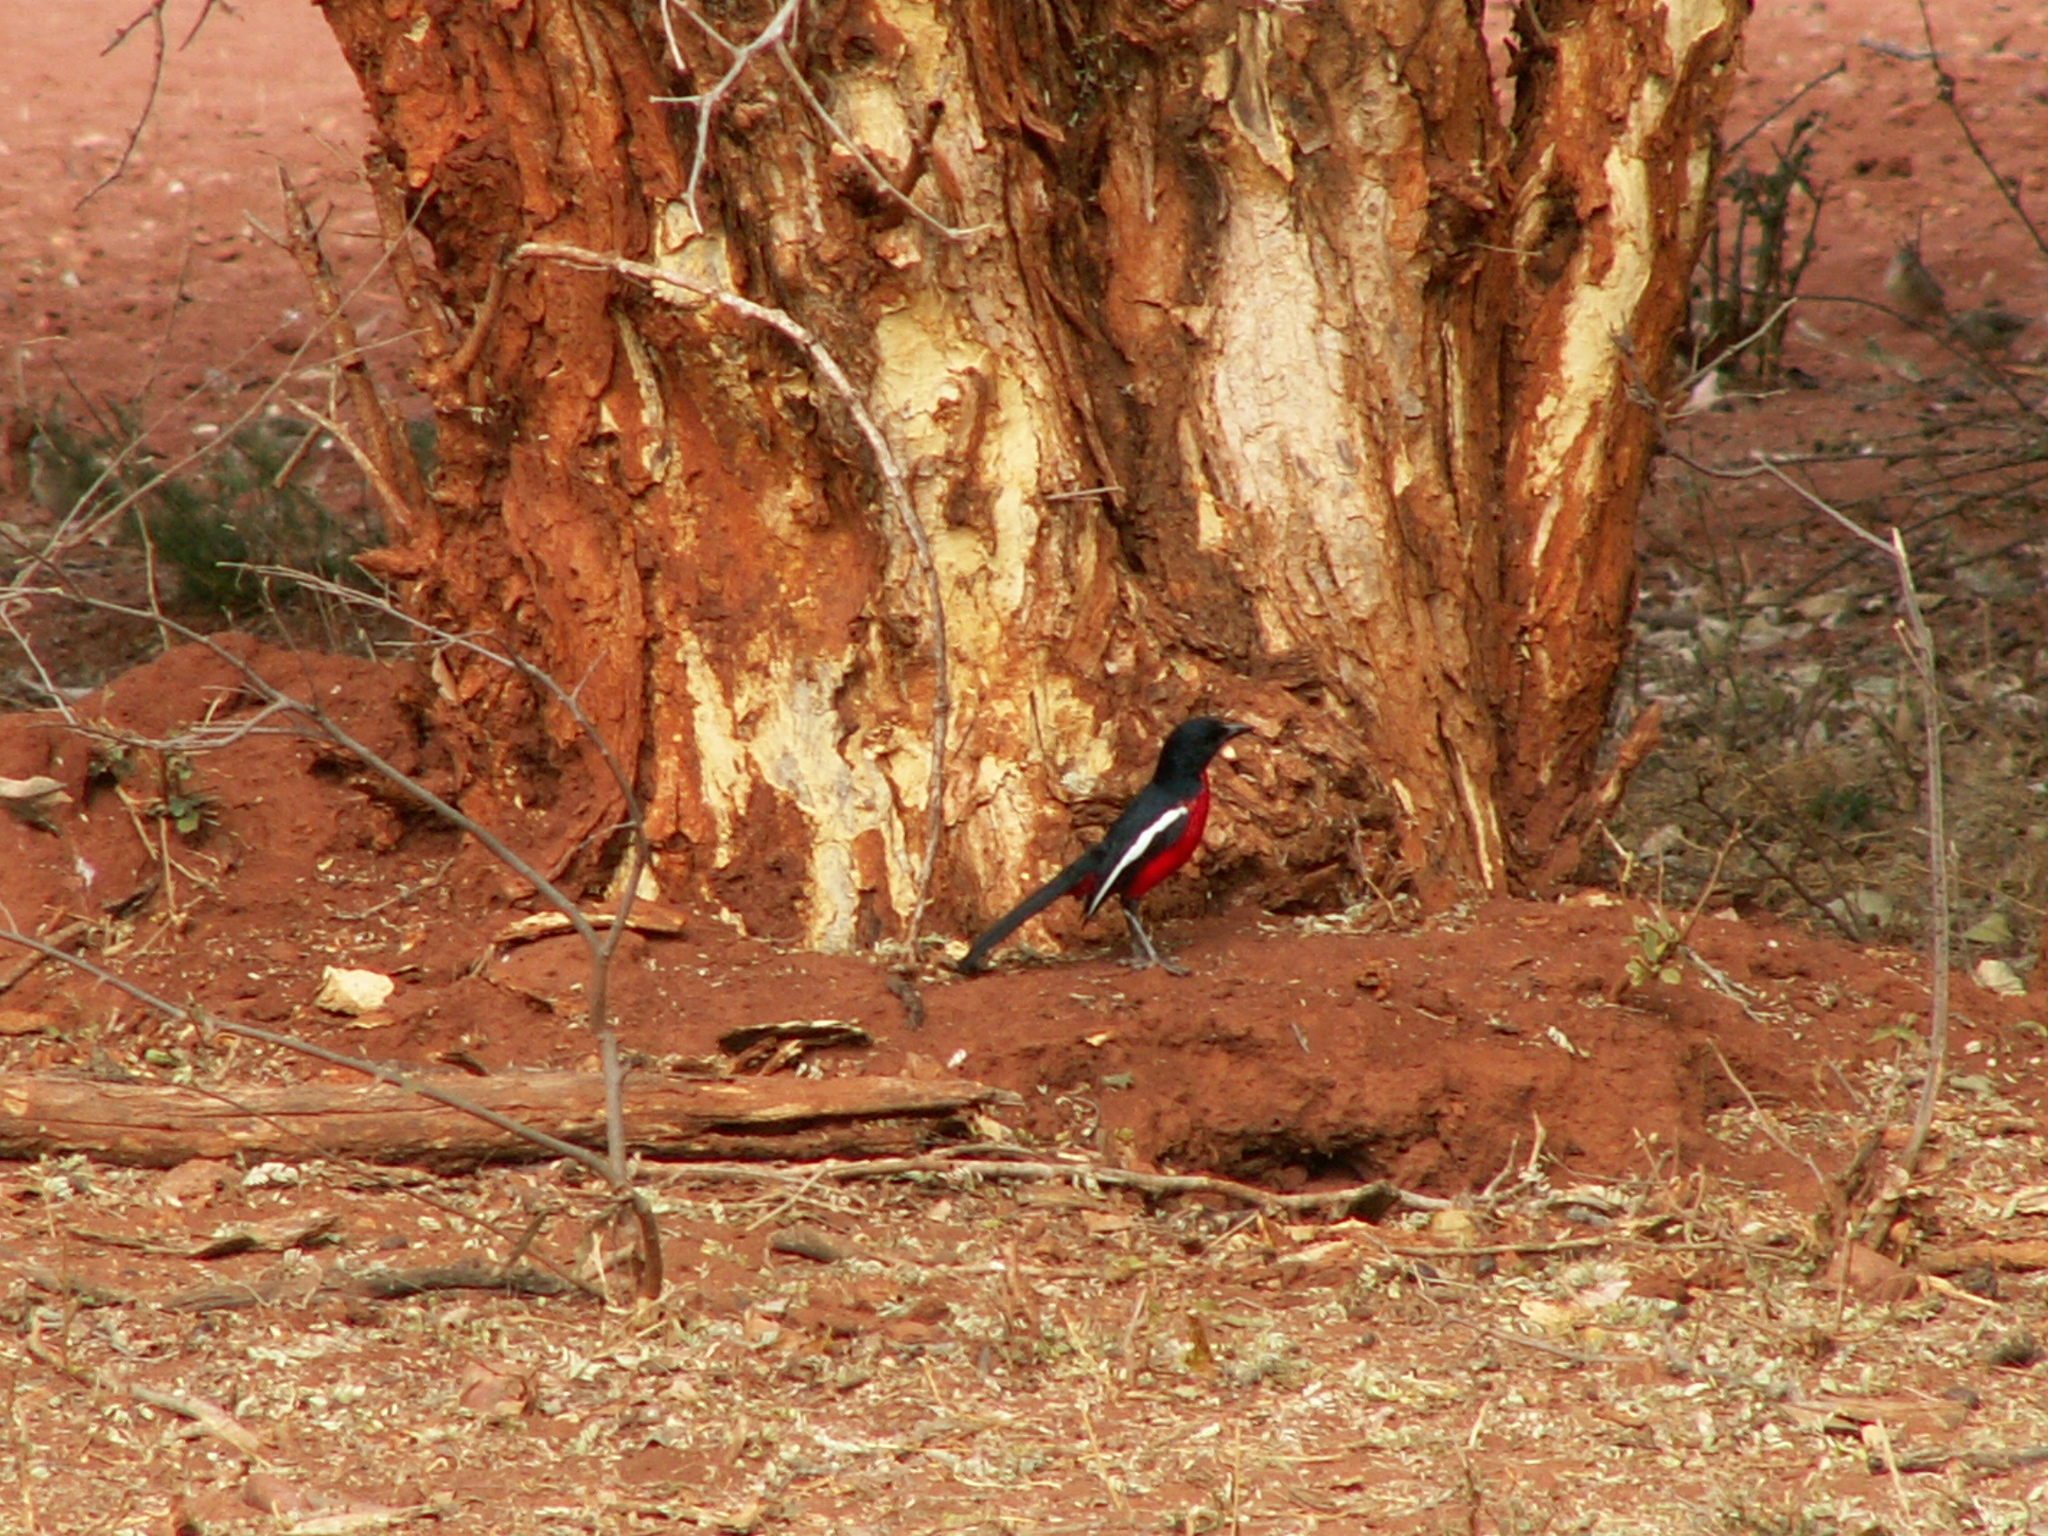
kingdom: Animalia
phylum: Chordata
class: Aves
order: Passeriformes
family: Malaconotidae
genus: Laniarius
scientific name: Laniarius atrococcineus
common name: Crimson-breasted shrike
